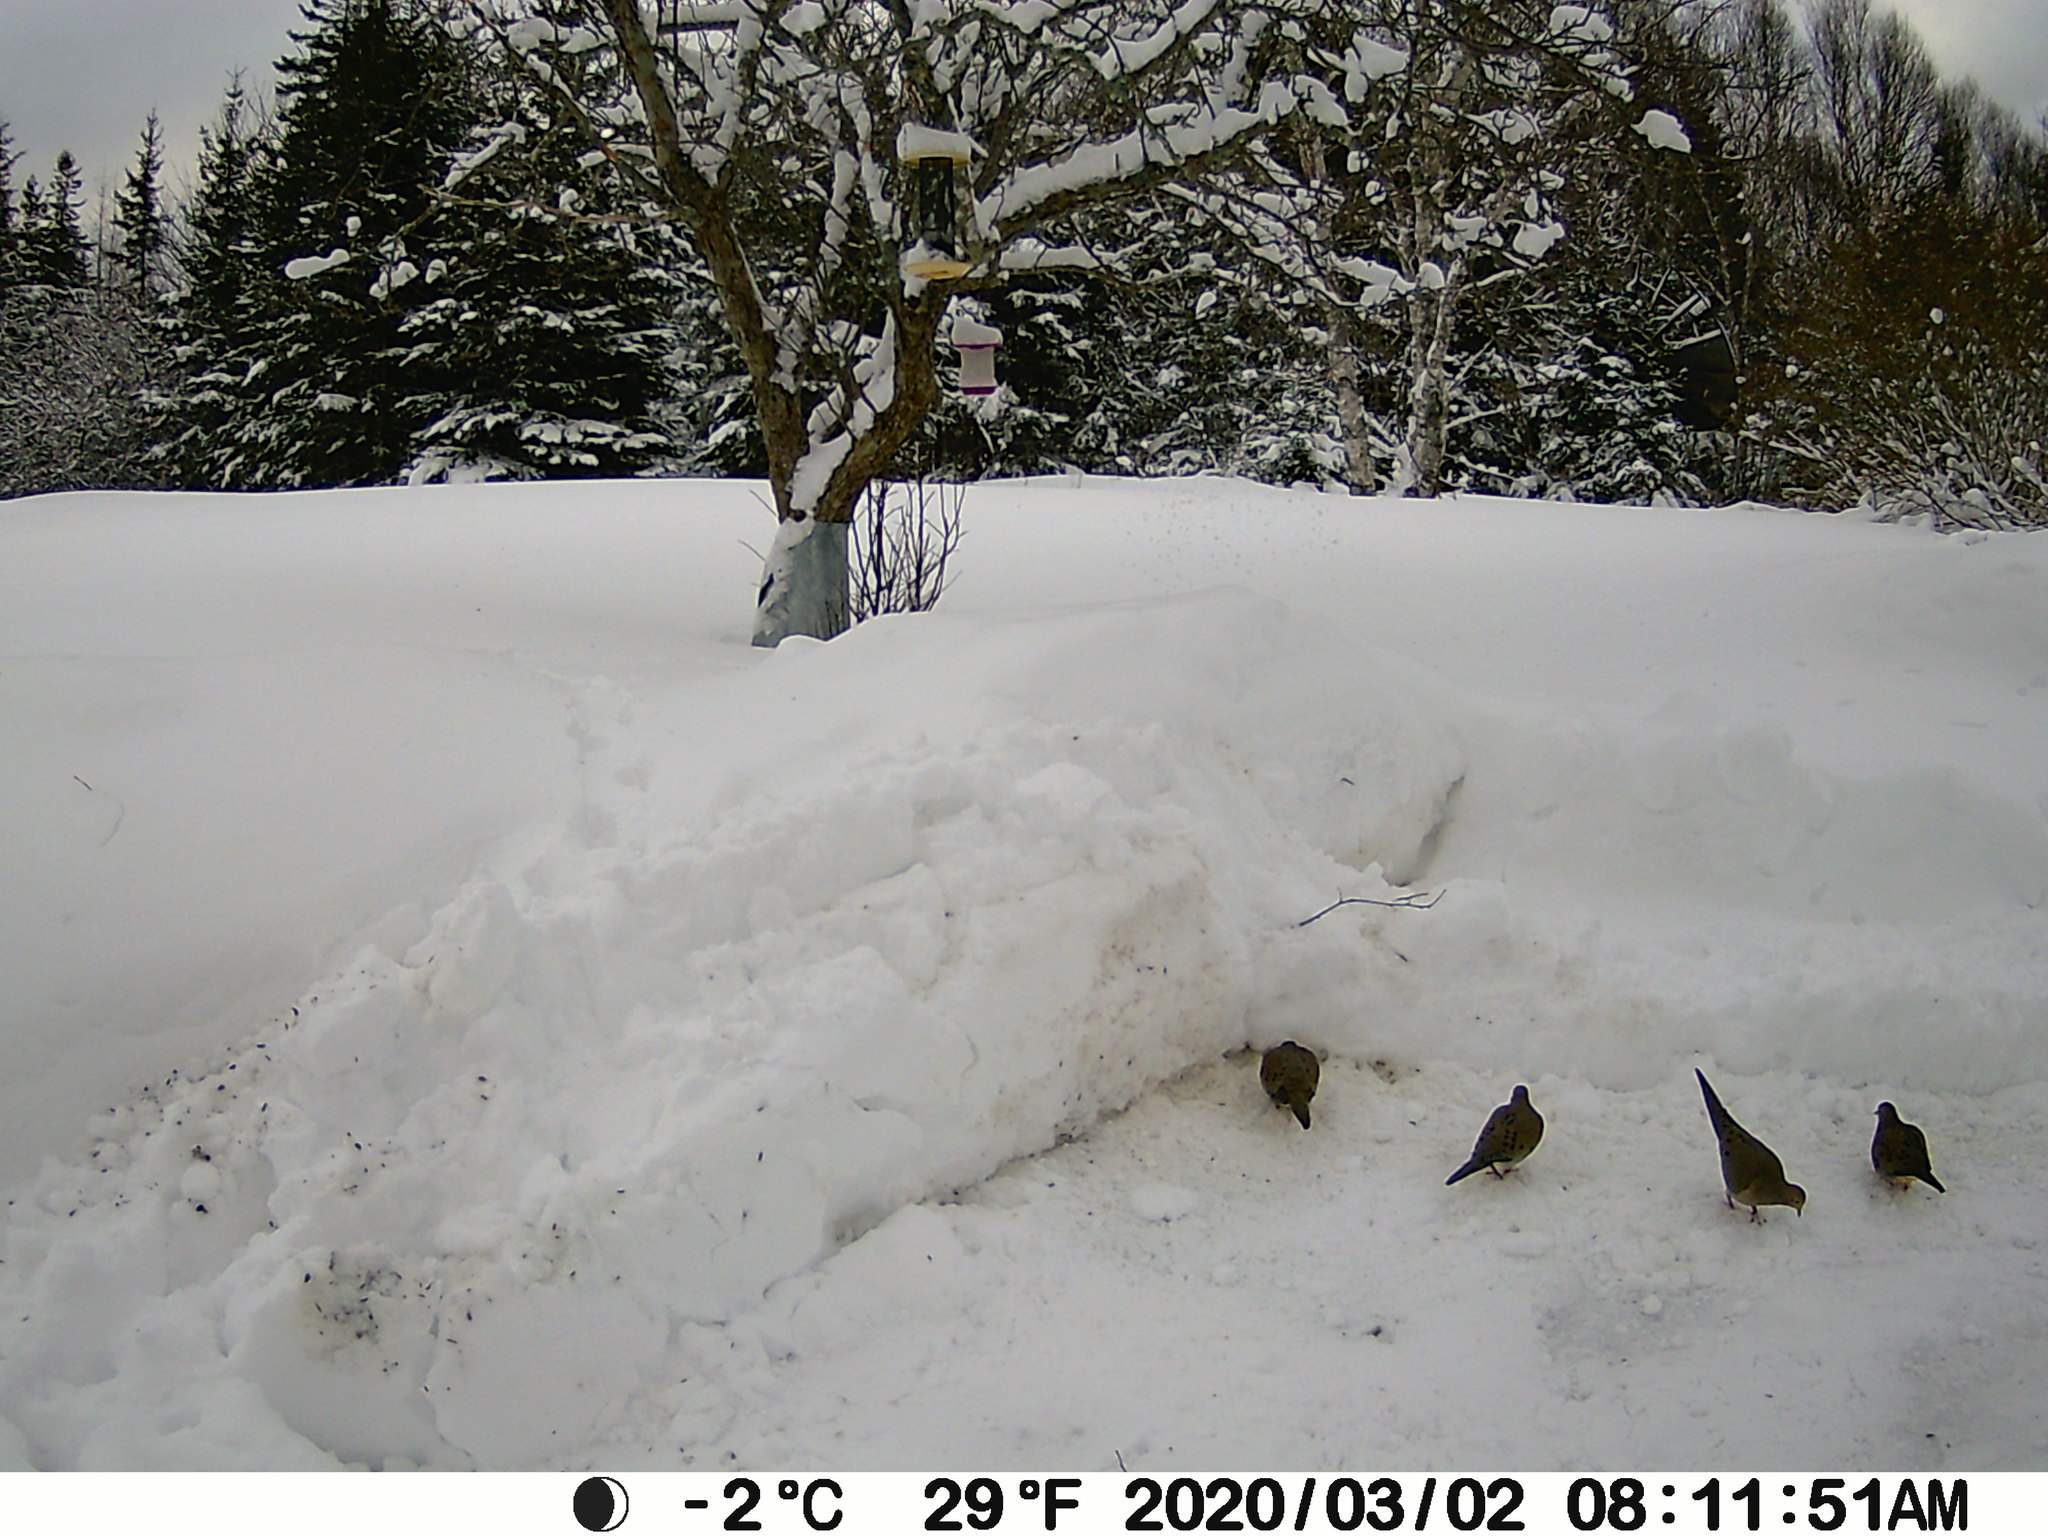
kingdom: Animalia
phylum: Chordata
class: Aves
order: Columbiformes
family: Columbidae
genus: Zenaida
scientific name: Zenaida macroura
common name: Mourning dove
